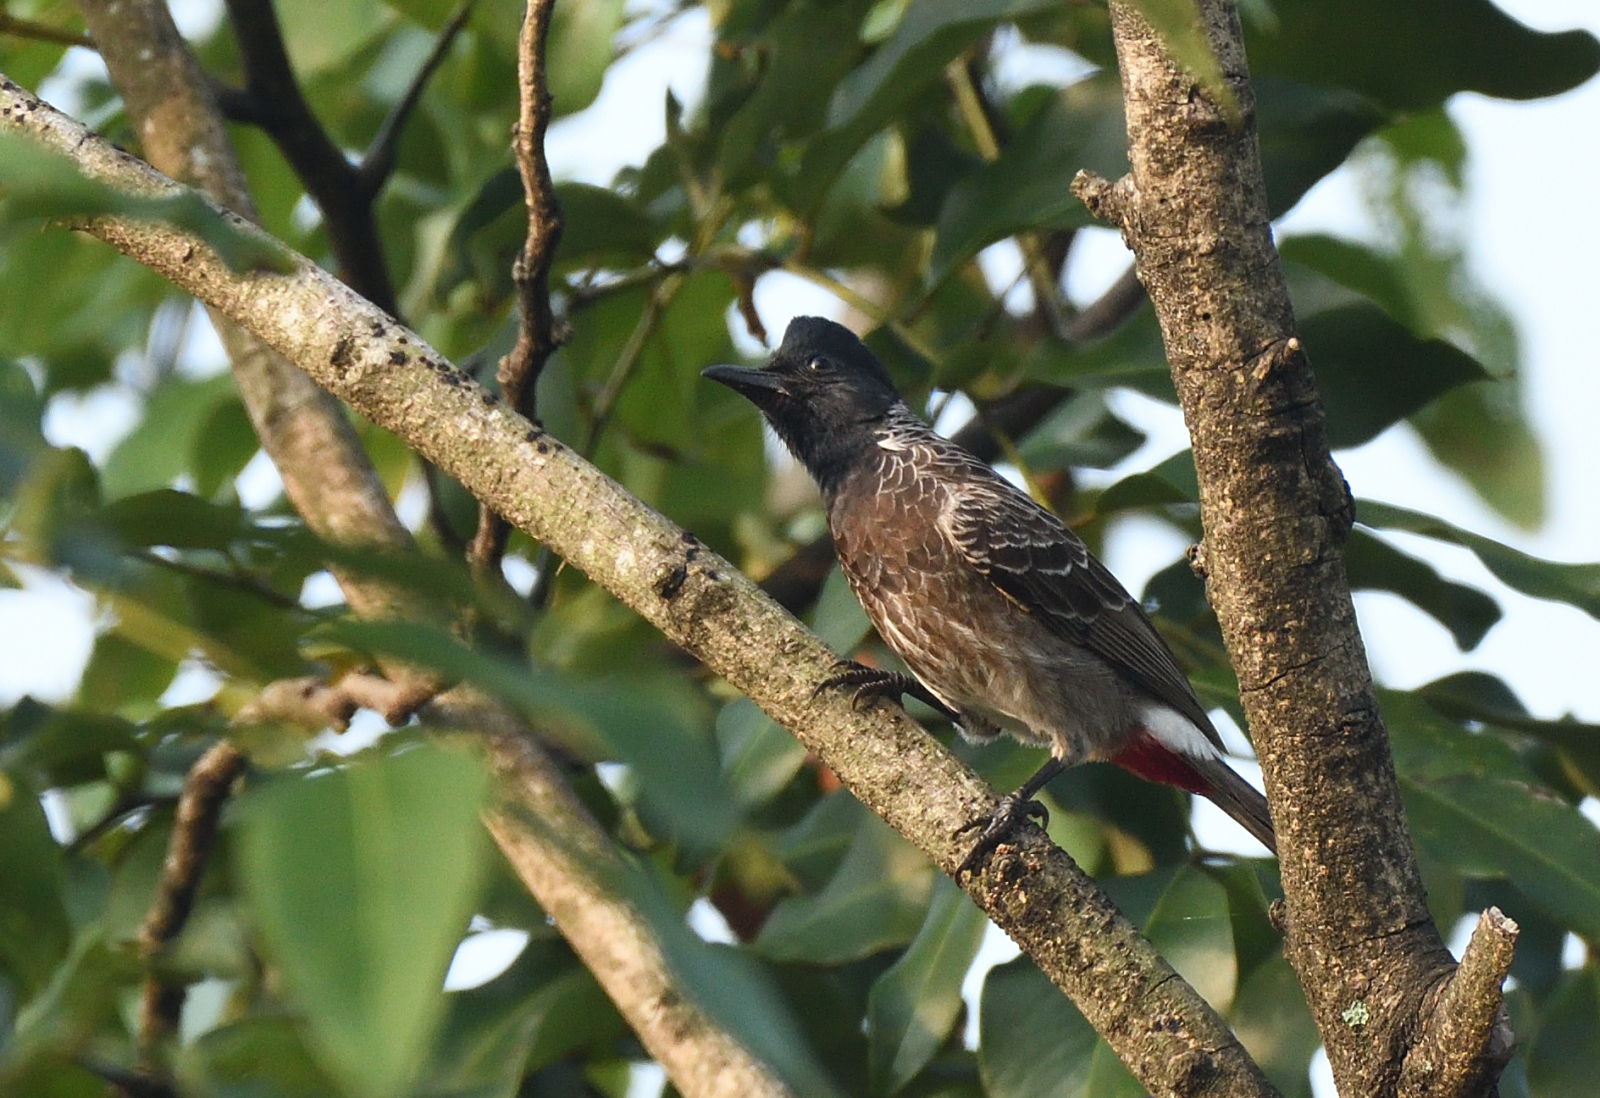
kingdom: Animalia
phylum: Chordata
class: Aves
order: Passeriformes
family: Pycnonotidae
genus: Pycnonotus
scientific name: Pycnonotus cafer
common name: Red-vented bulbul
